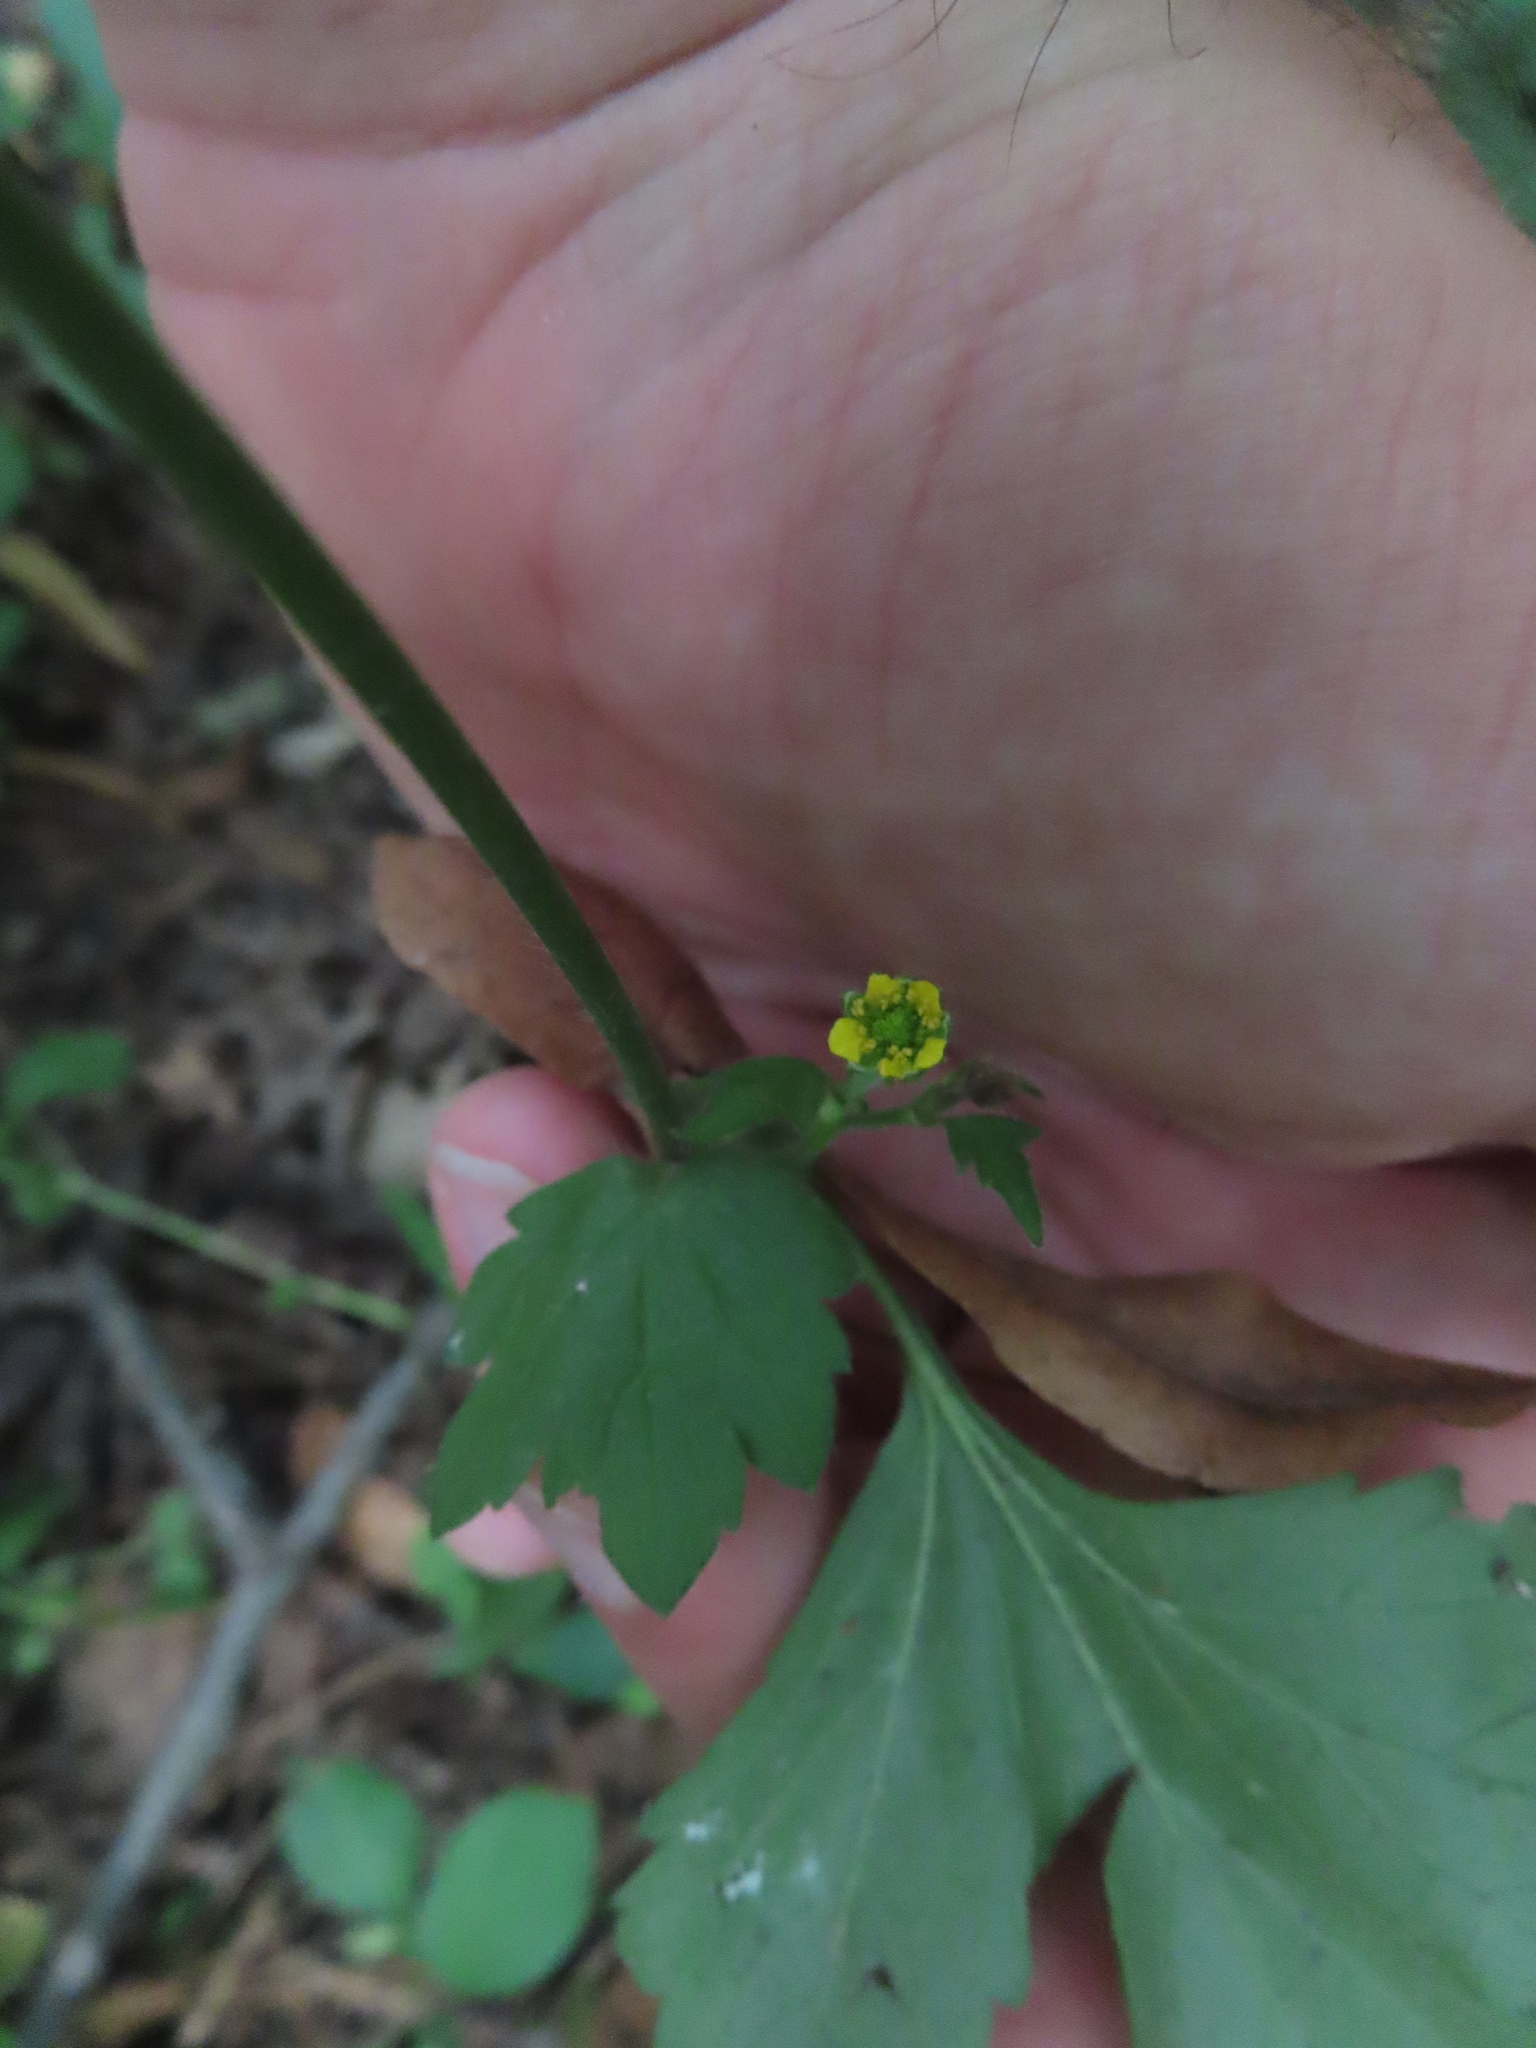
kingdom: Plantae
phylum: Tracheophyta
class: Magnoliopsida
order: Rosales
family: Rosaceae
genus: Geum
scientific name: Geum urbanum
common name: Wood avens
